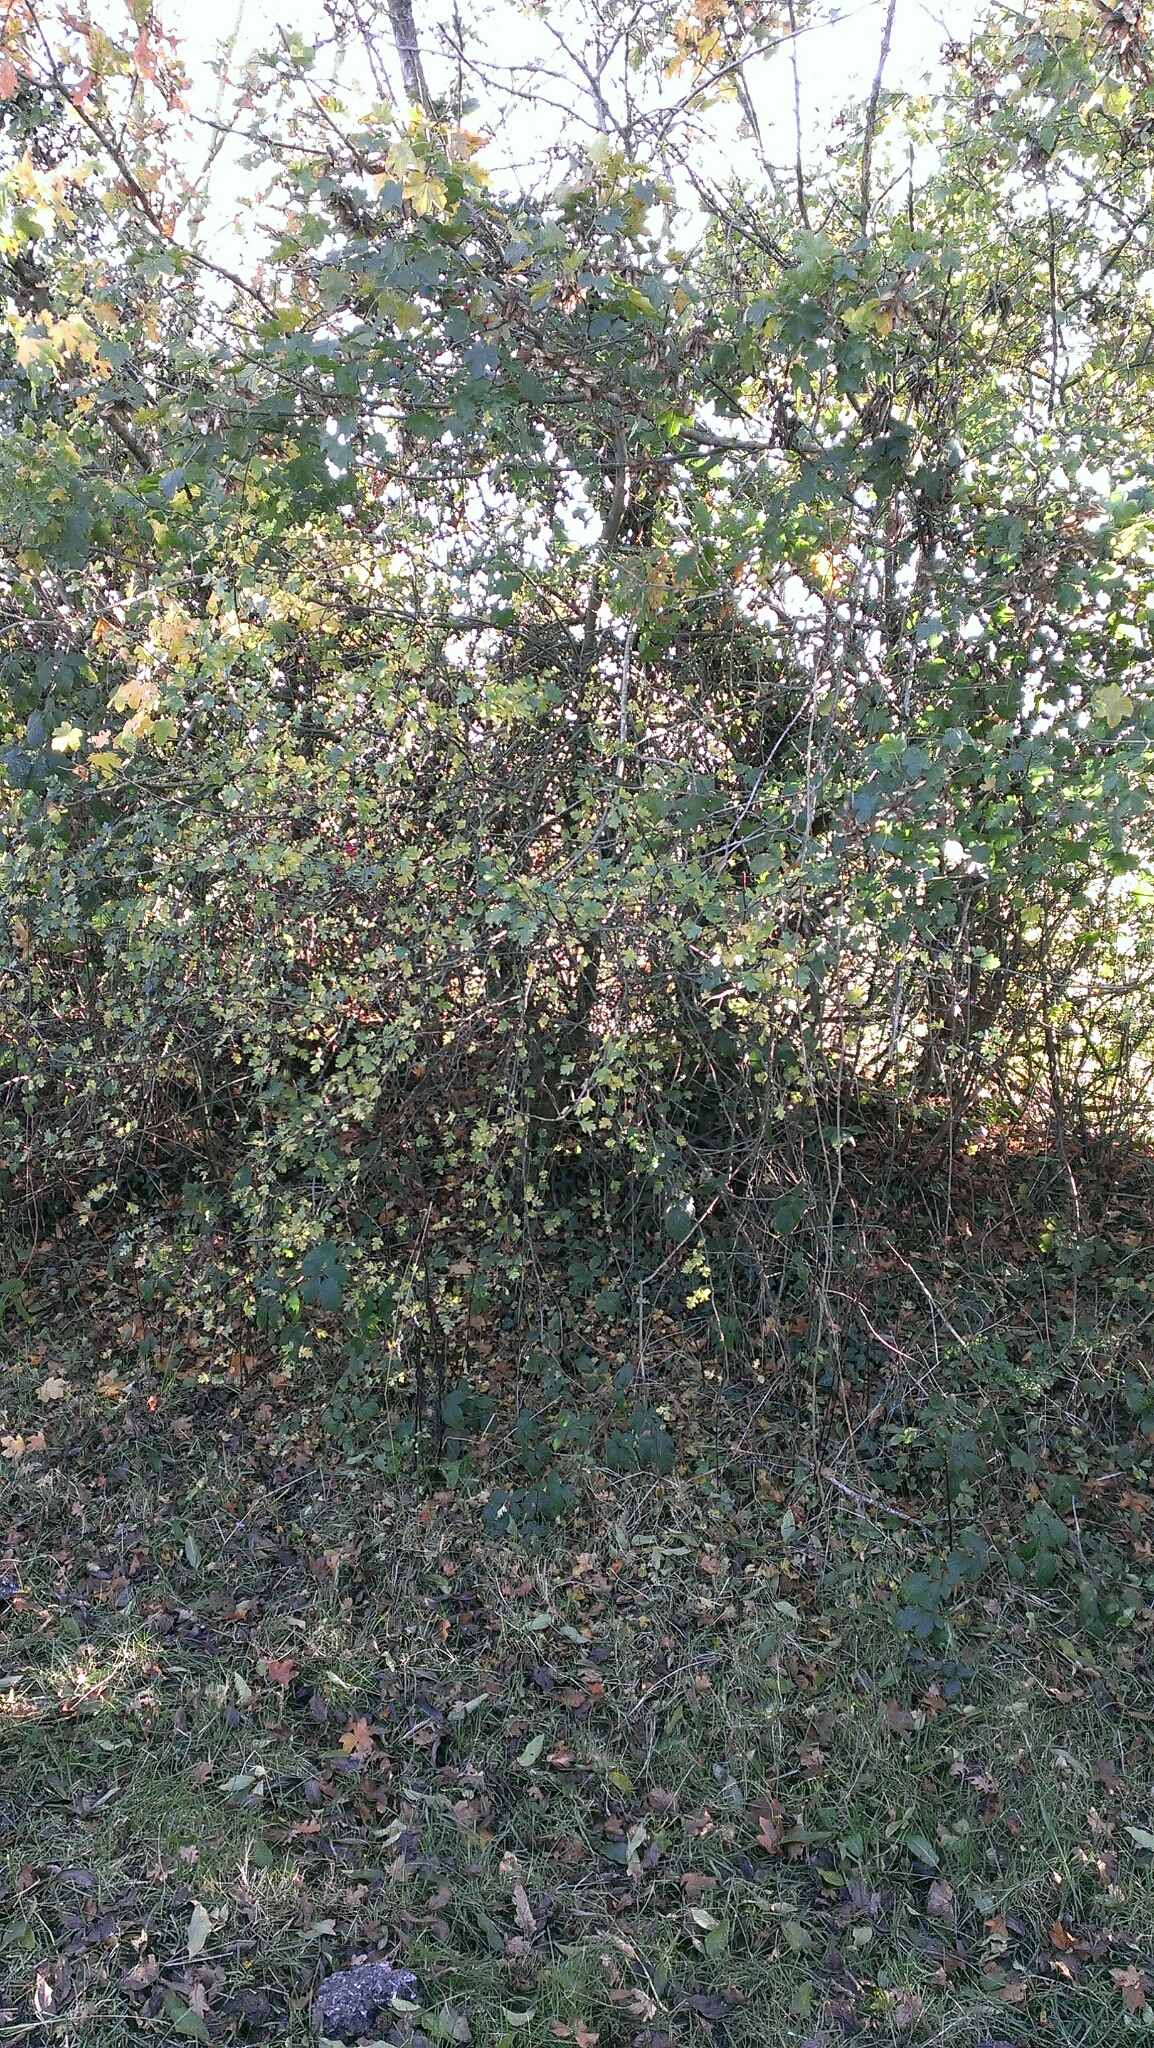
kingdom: Plantae
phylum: Tracheophyta
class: Magnoliopsida
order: Rosales
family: Rosaceae
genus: Crataegus
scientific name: Crataegus monogyna
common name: Hawthorn
